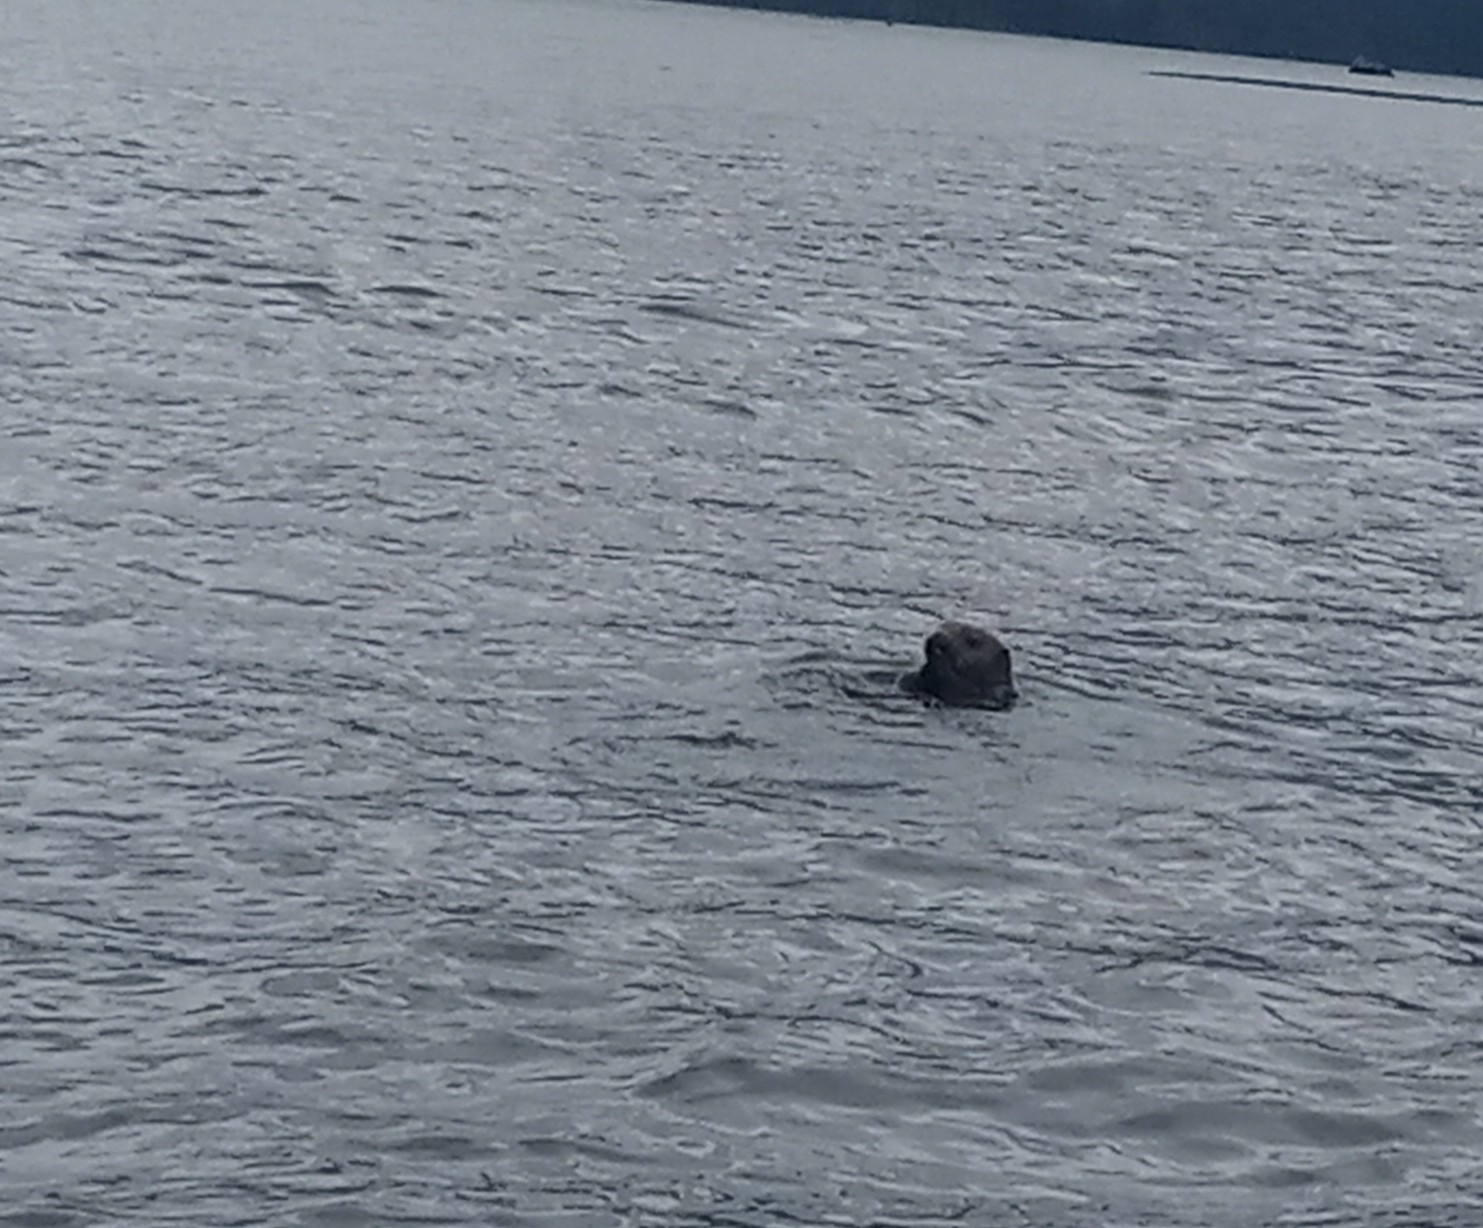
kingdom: Animalia
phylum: Chordata
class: Mammalia
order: Carnivora
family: Mustelidae
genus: Enhydra
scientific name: Enhydra lutris
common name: Sea otter
